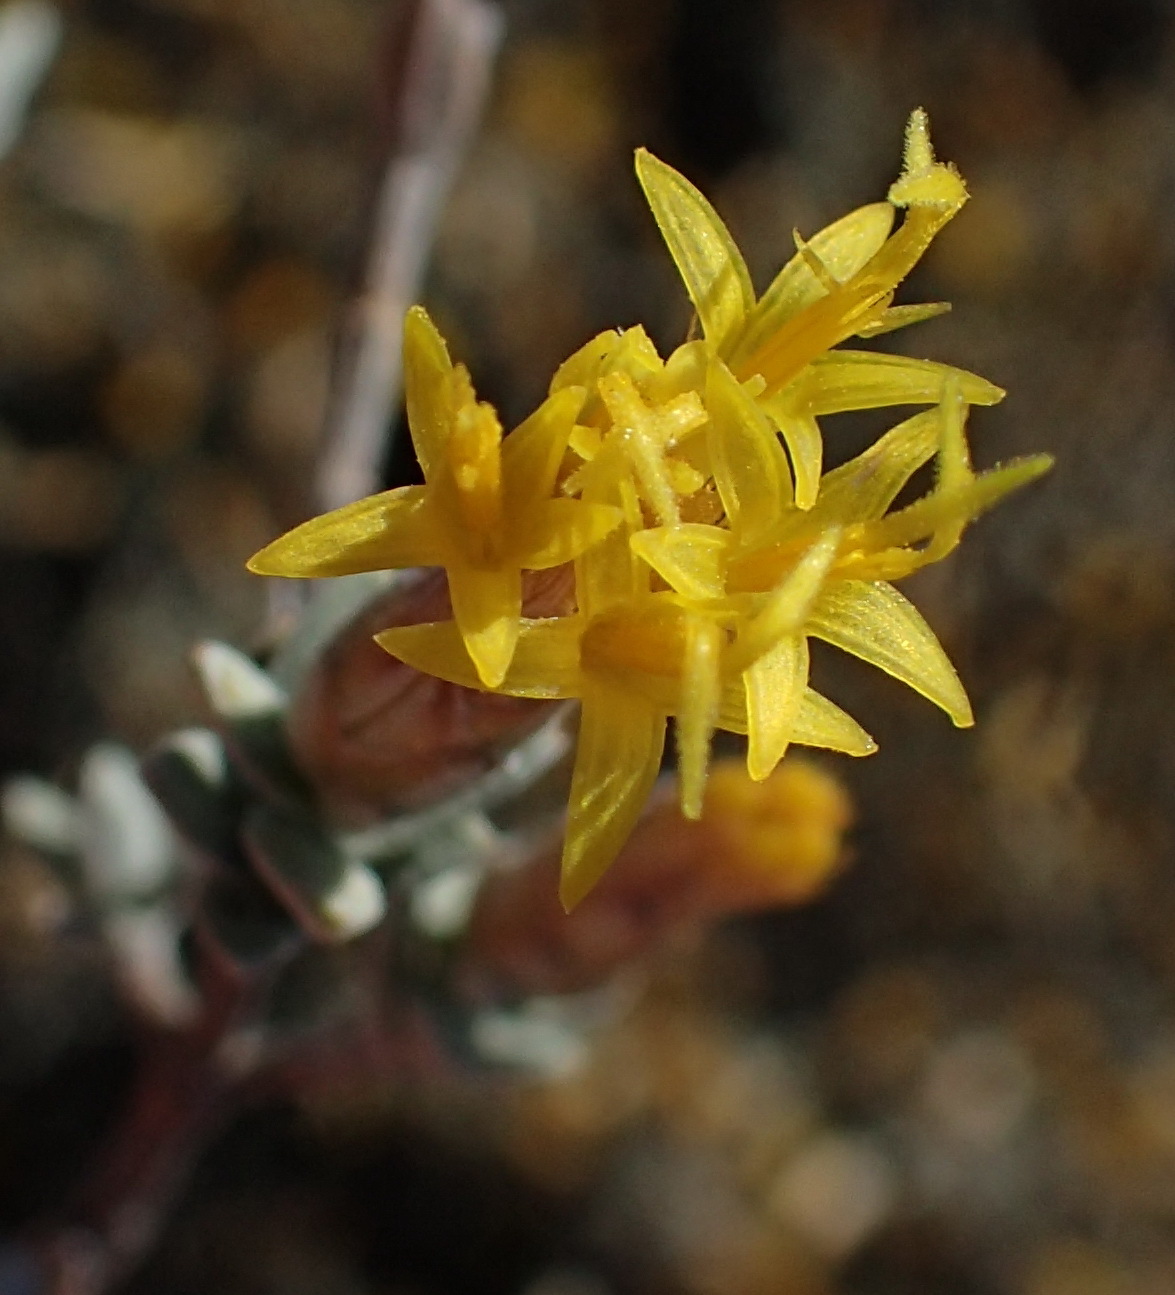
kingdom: Plantae
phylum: Tracheophyta
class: Magnoliopsida
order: Asterales
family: Asteraceae
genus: Pteronia
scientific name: Pteronia glauca
